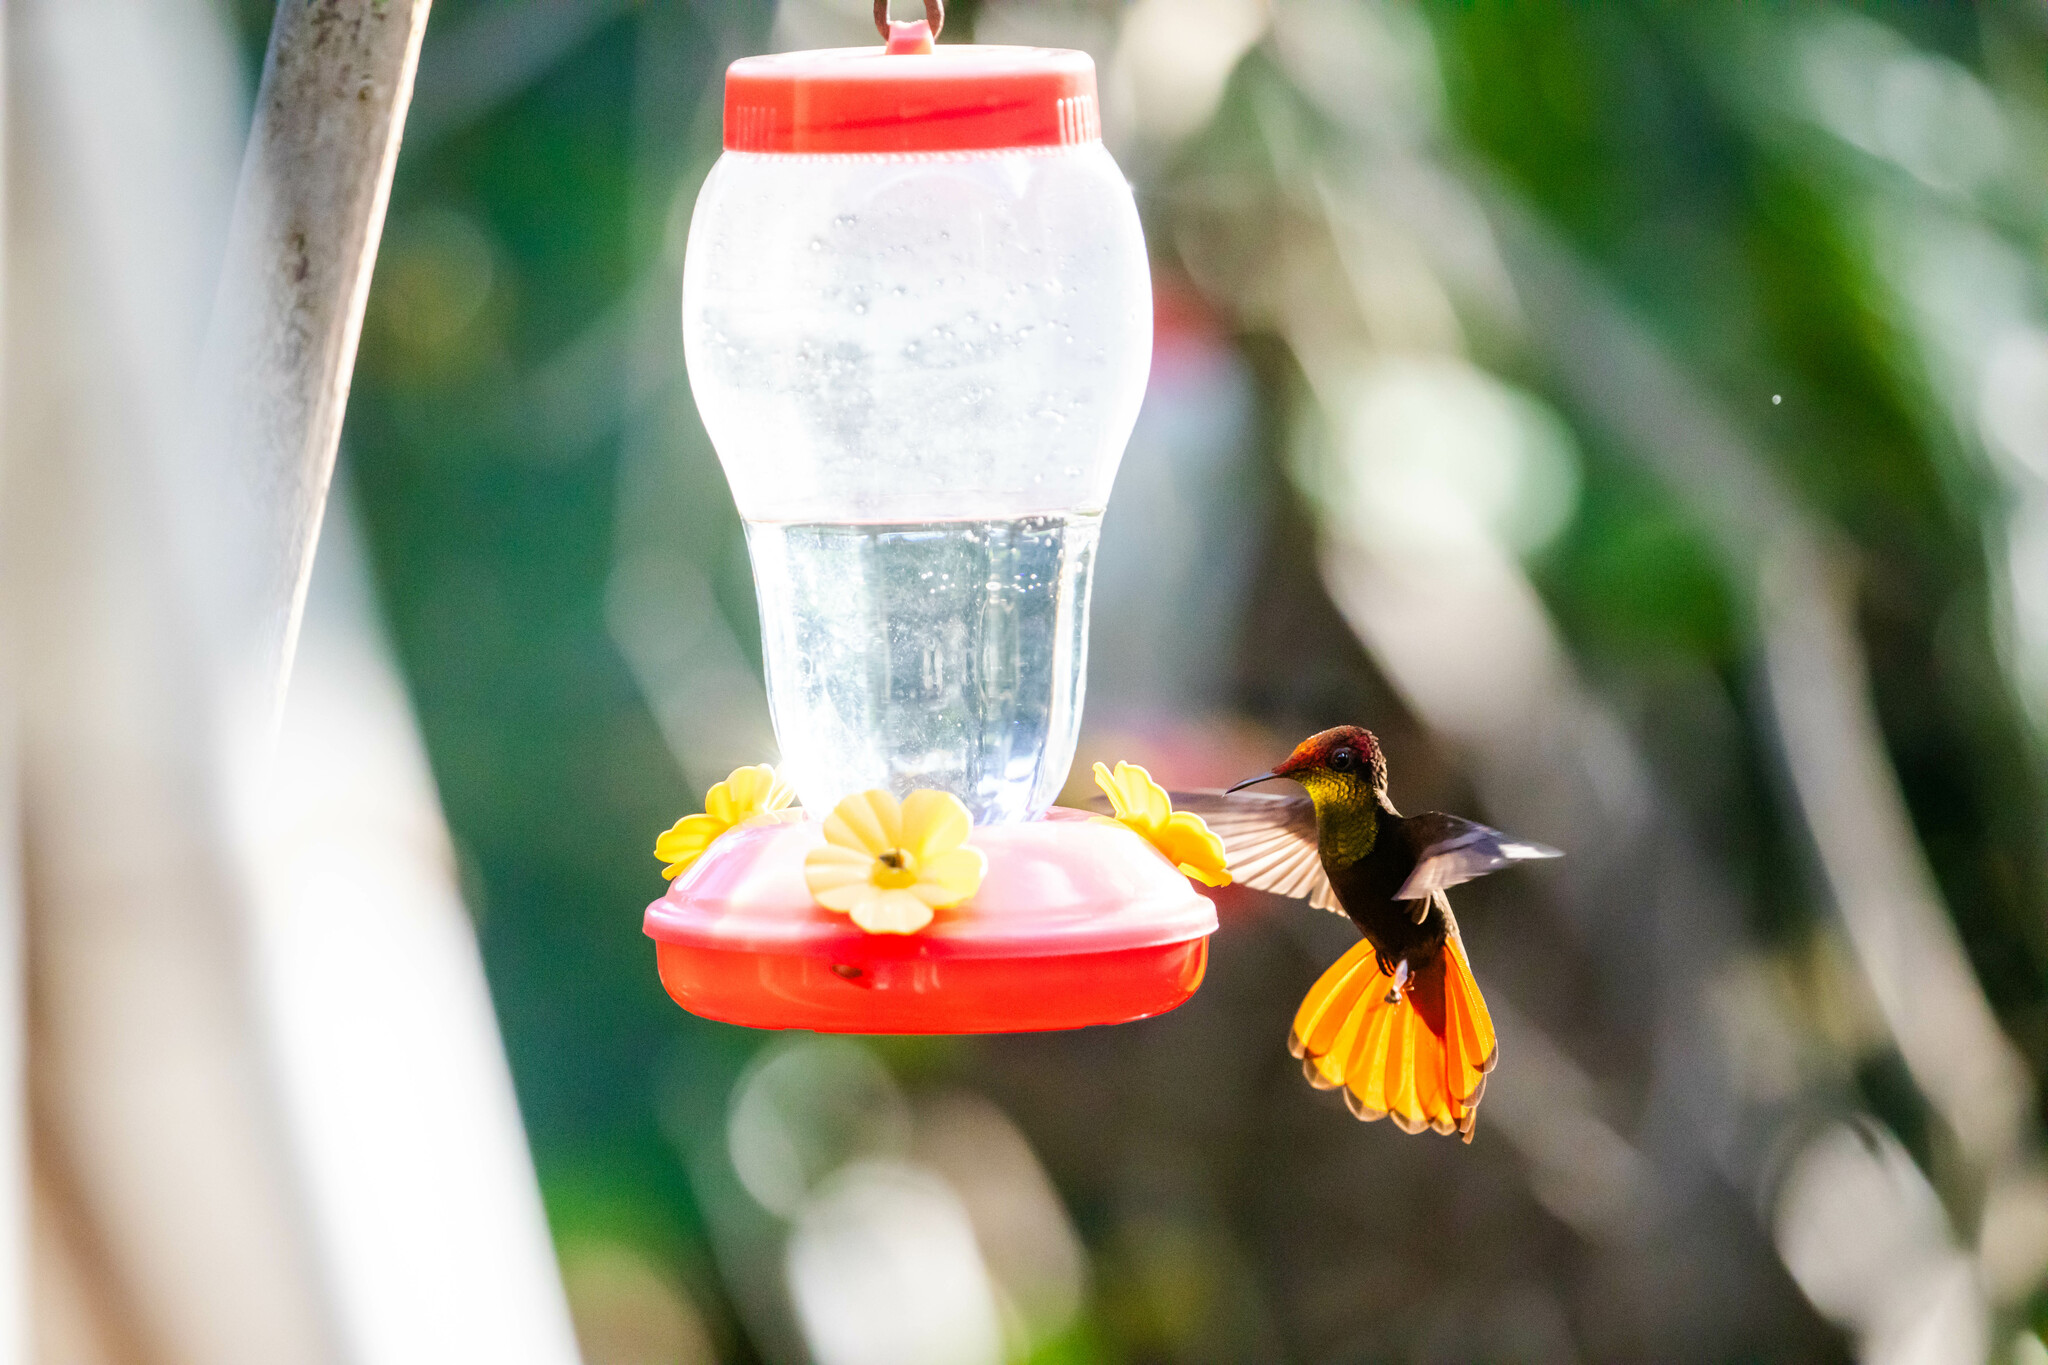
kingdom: Animalia
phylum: Chordata
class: Aves
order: Apodiformes
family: Trochilidae
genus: Chrysolampis
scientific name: Chrysolampis mosquitus
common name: Ruby-topaz hummingbird
